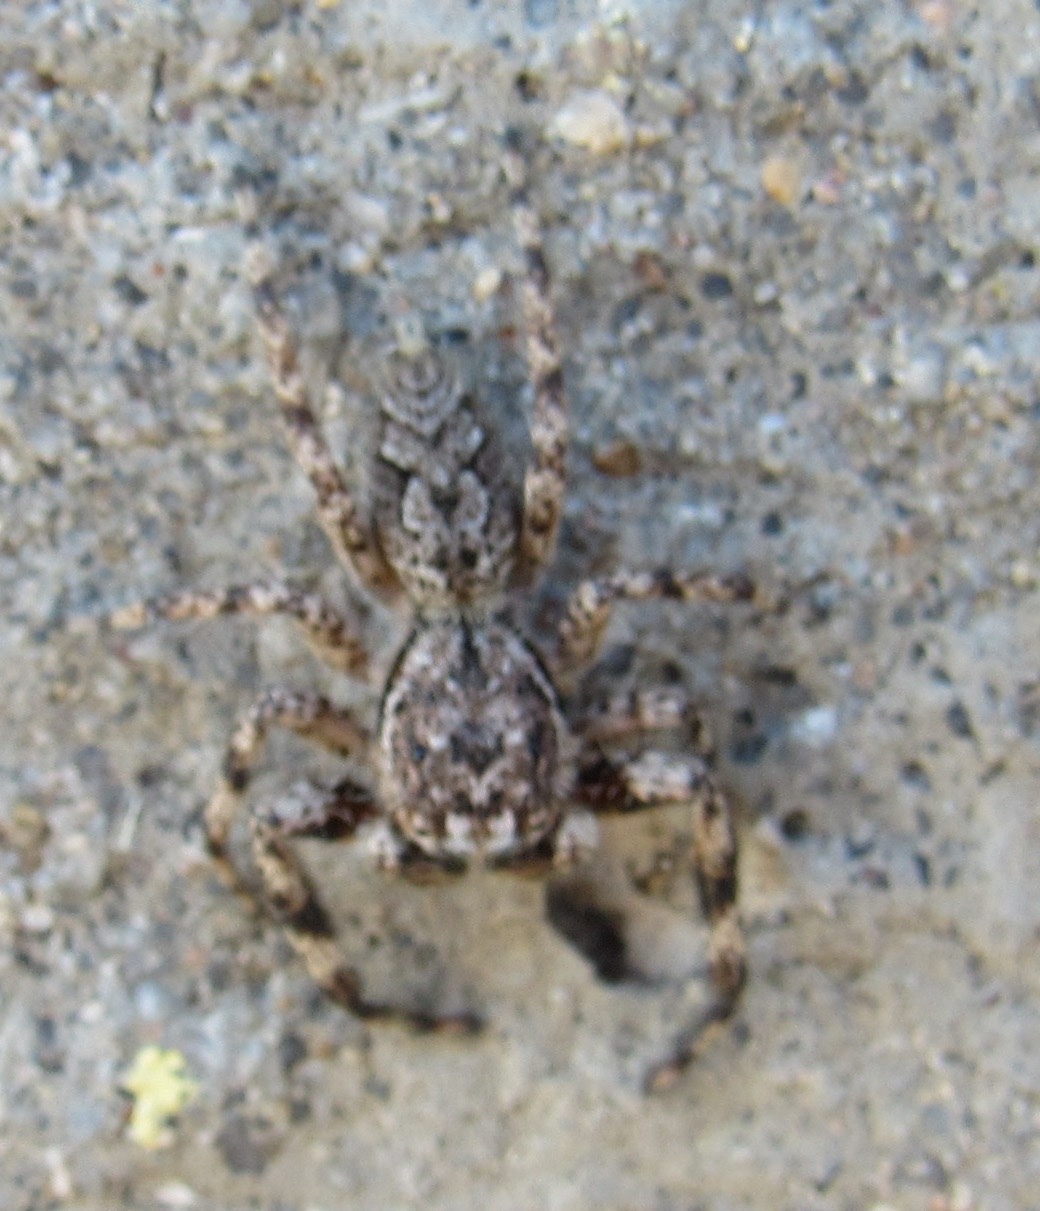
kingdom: Animalia
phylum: Arthropoda
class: Arachnida
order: Araneae
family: Salticidae
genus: Platycryptus
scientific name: Platycryptus undatus
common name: Tan jumping spider
